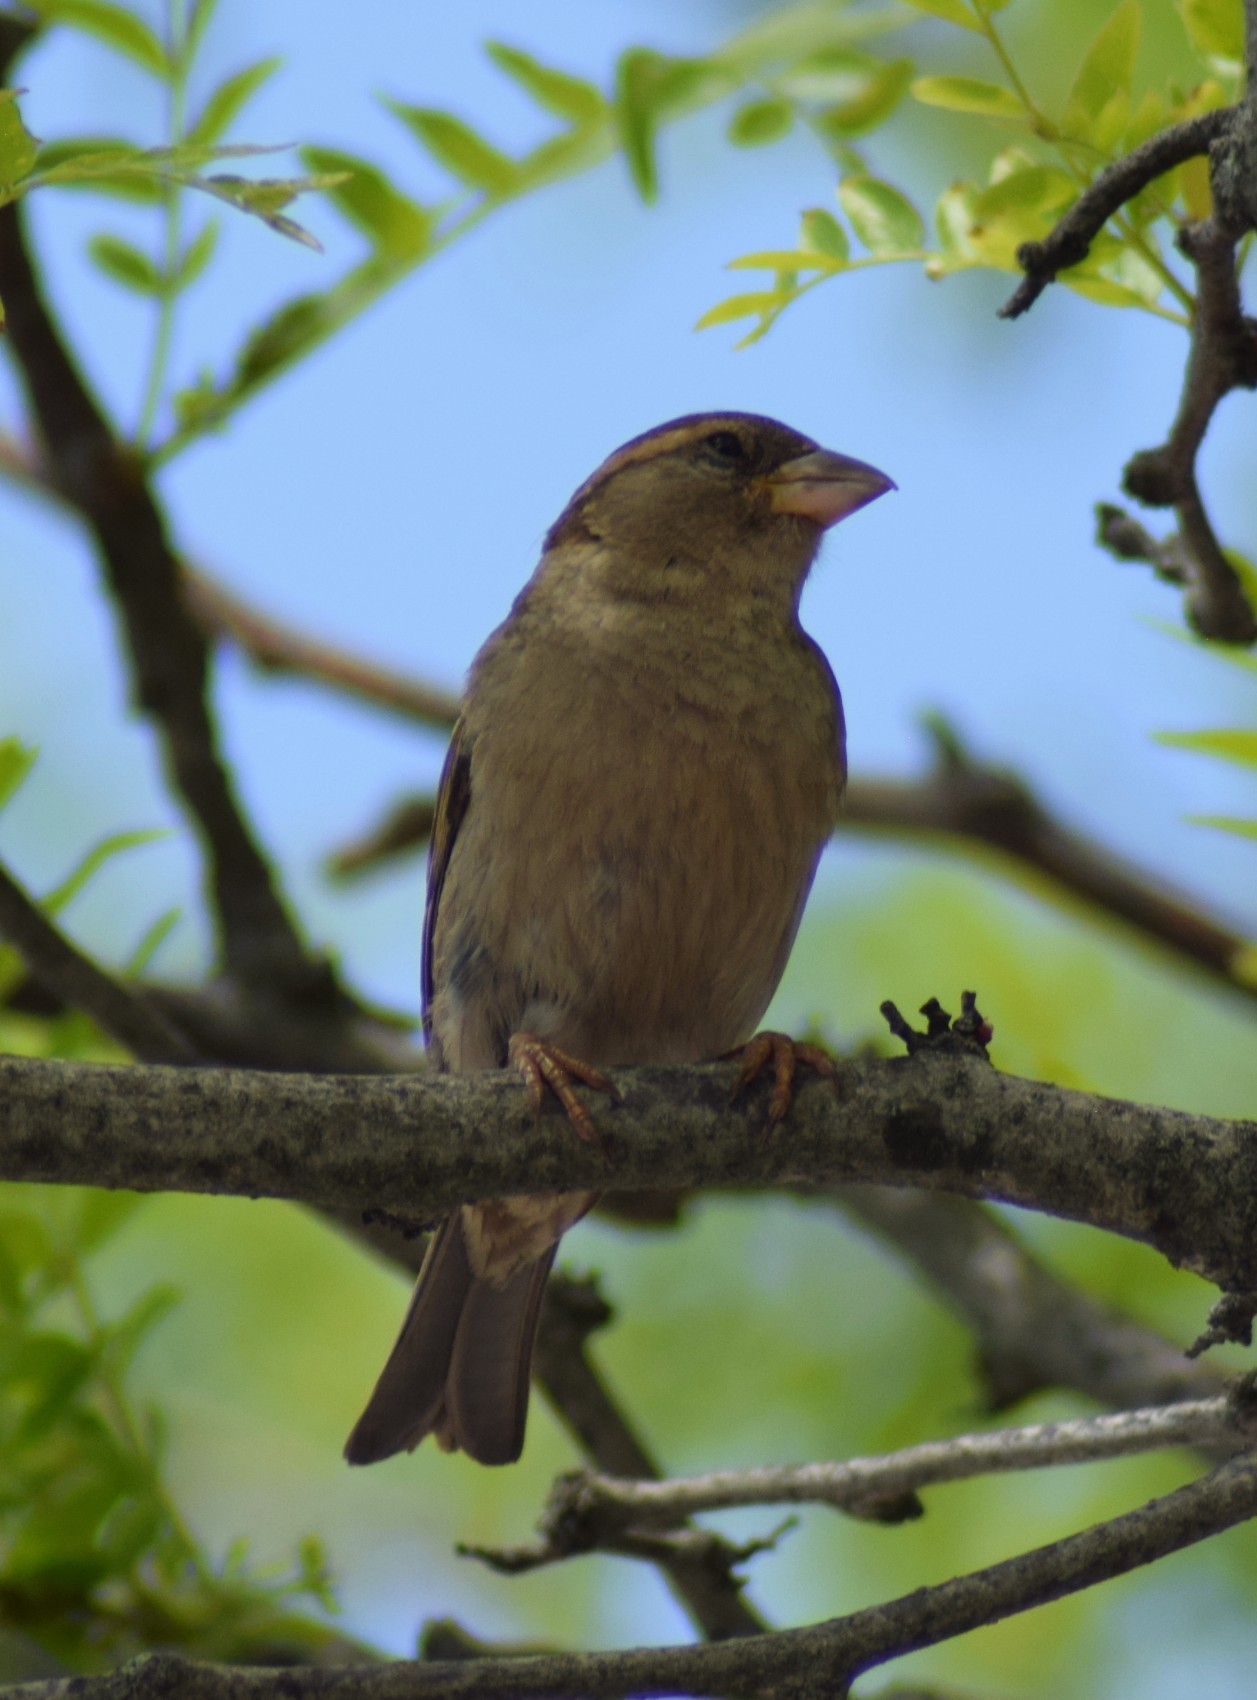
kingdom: Animalia
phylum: Chordata
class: Aves
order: Passeriformes
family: Passeridae
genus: Passer
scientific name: Passer domesticus
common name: House sparrow
